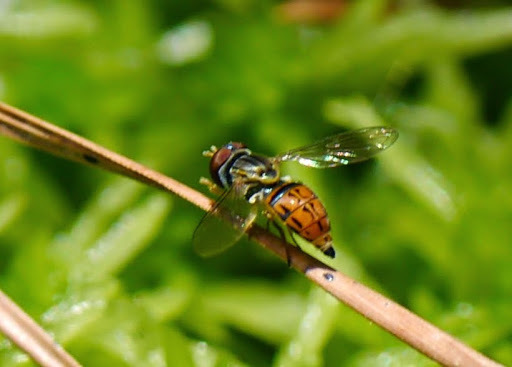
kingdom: Animalia
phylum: Arthropoda
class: Insecta
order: Diptera
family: Syrphidae
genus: Toxomerus
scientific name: Toxomerus boscii
